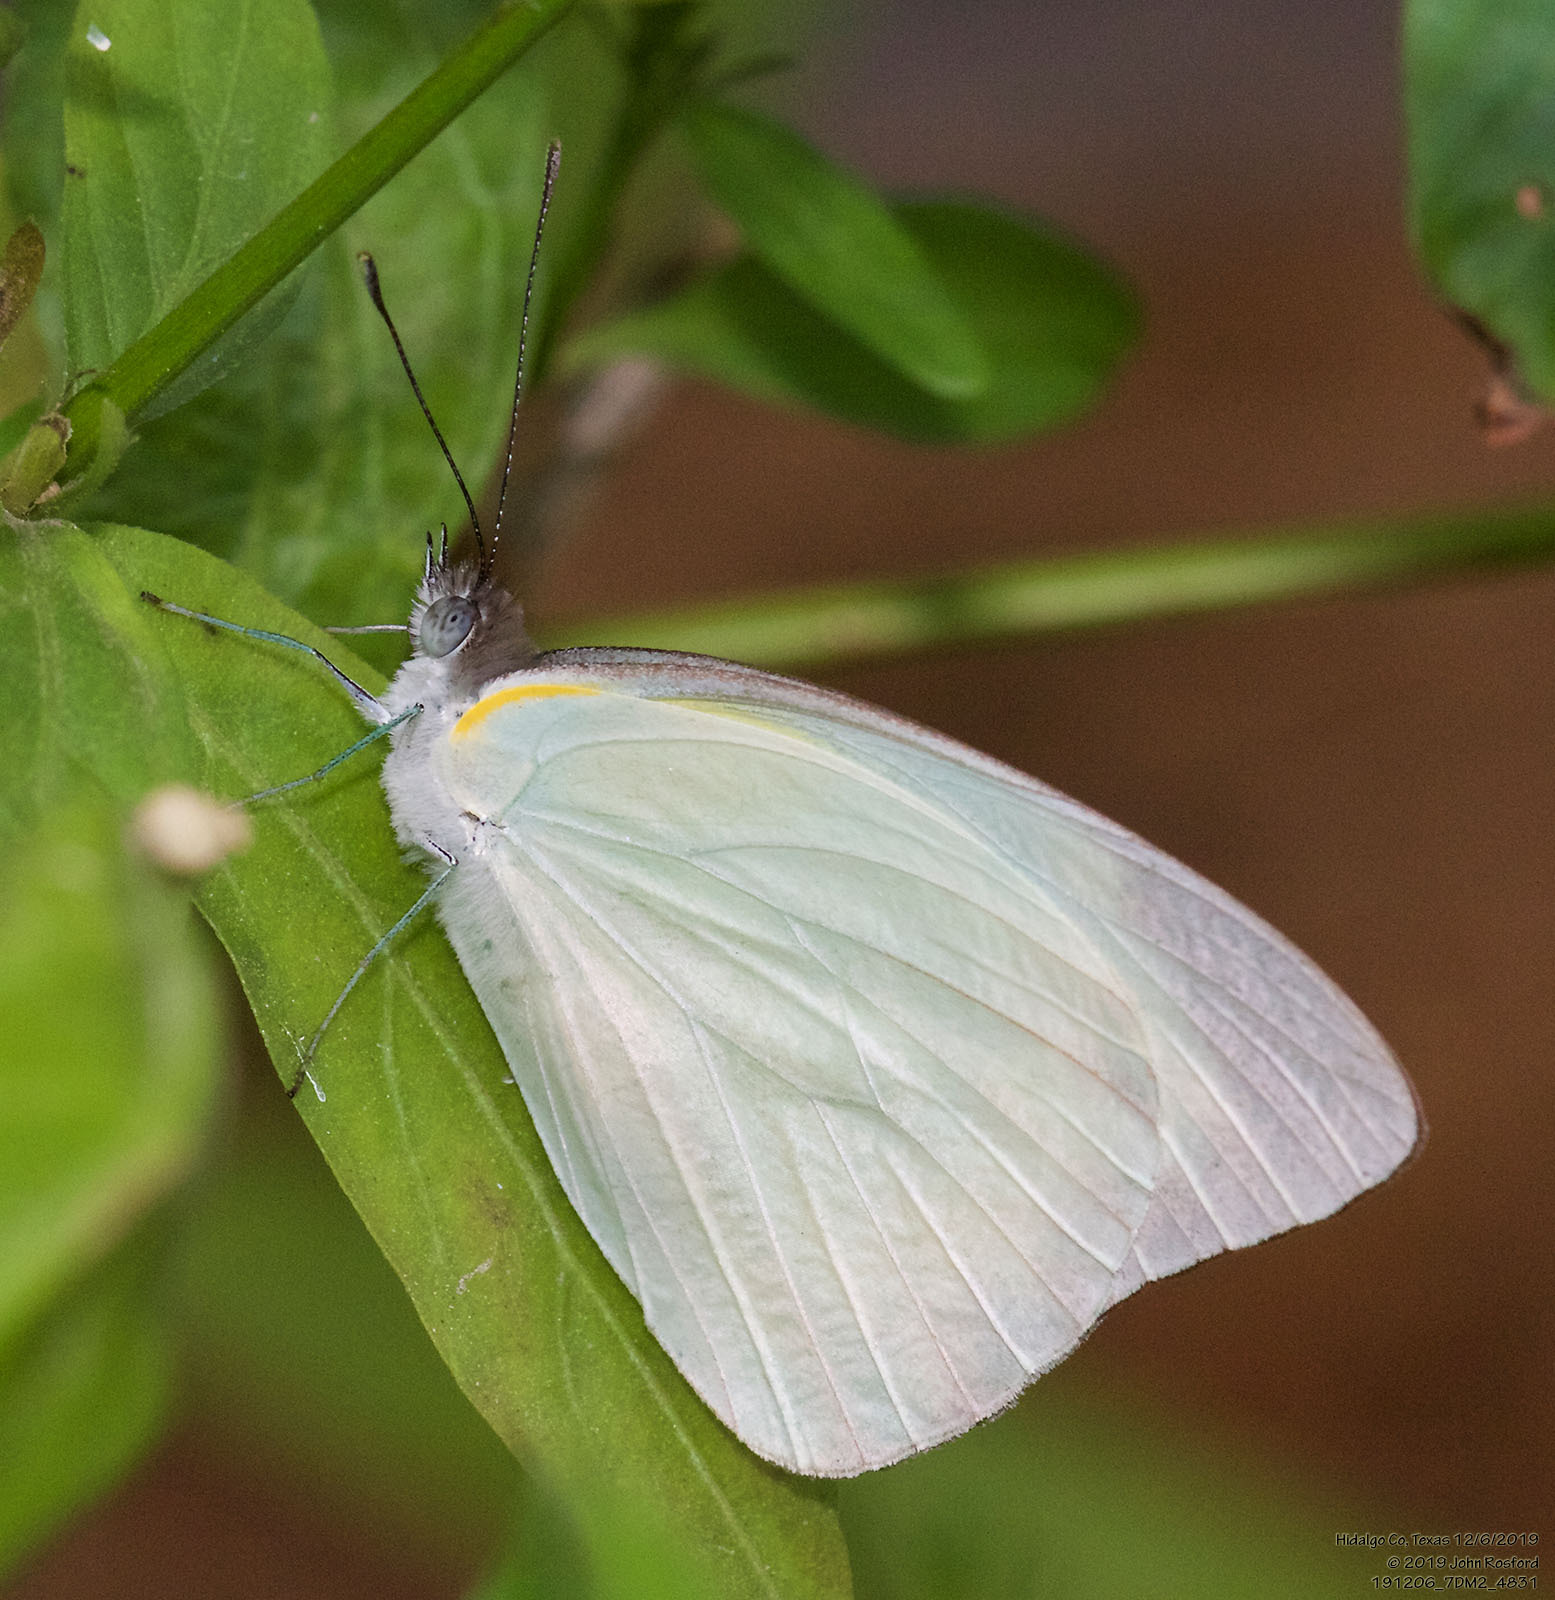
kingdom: Animalia
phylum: Arthropoda
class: Insecta
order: Lepidoptera
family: Pieridae
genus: Glutophrissa
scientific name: Glutophrissa drusilla
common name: Florida white
